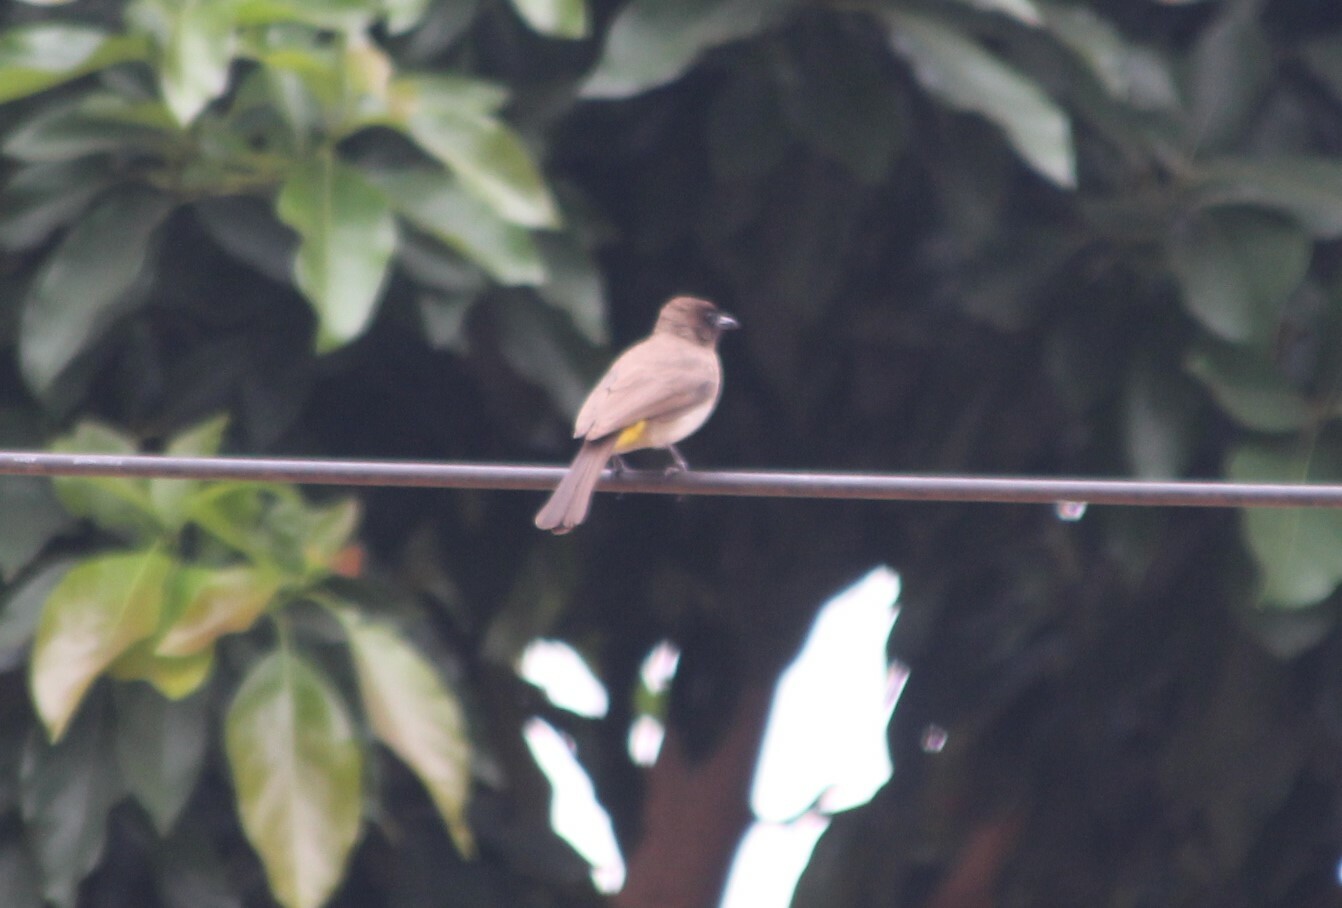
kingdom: Animalia
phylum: Chordata
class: Aves
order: Passeriformes
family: Pycnonotidae
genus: Pycnonotus
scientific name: Pycnonotus barbatus
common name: Common bulbul
